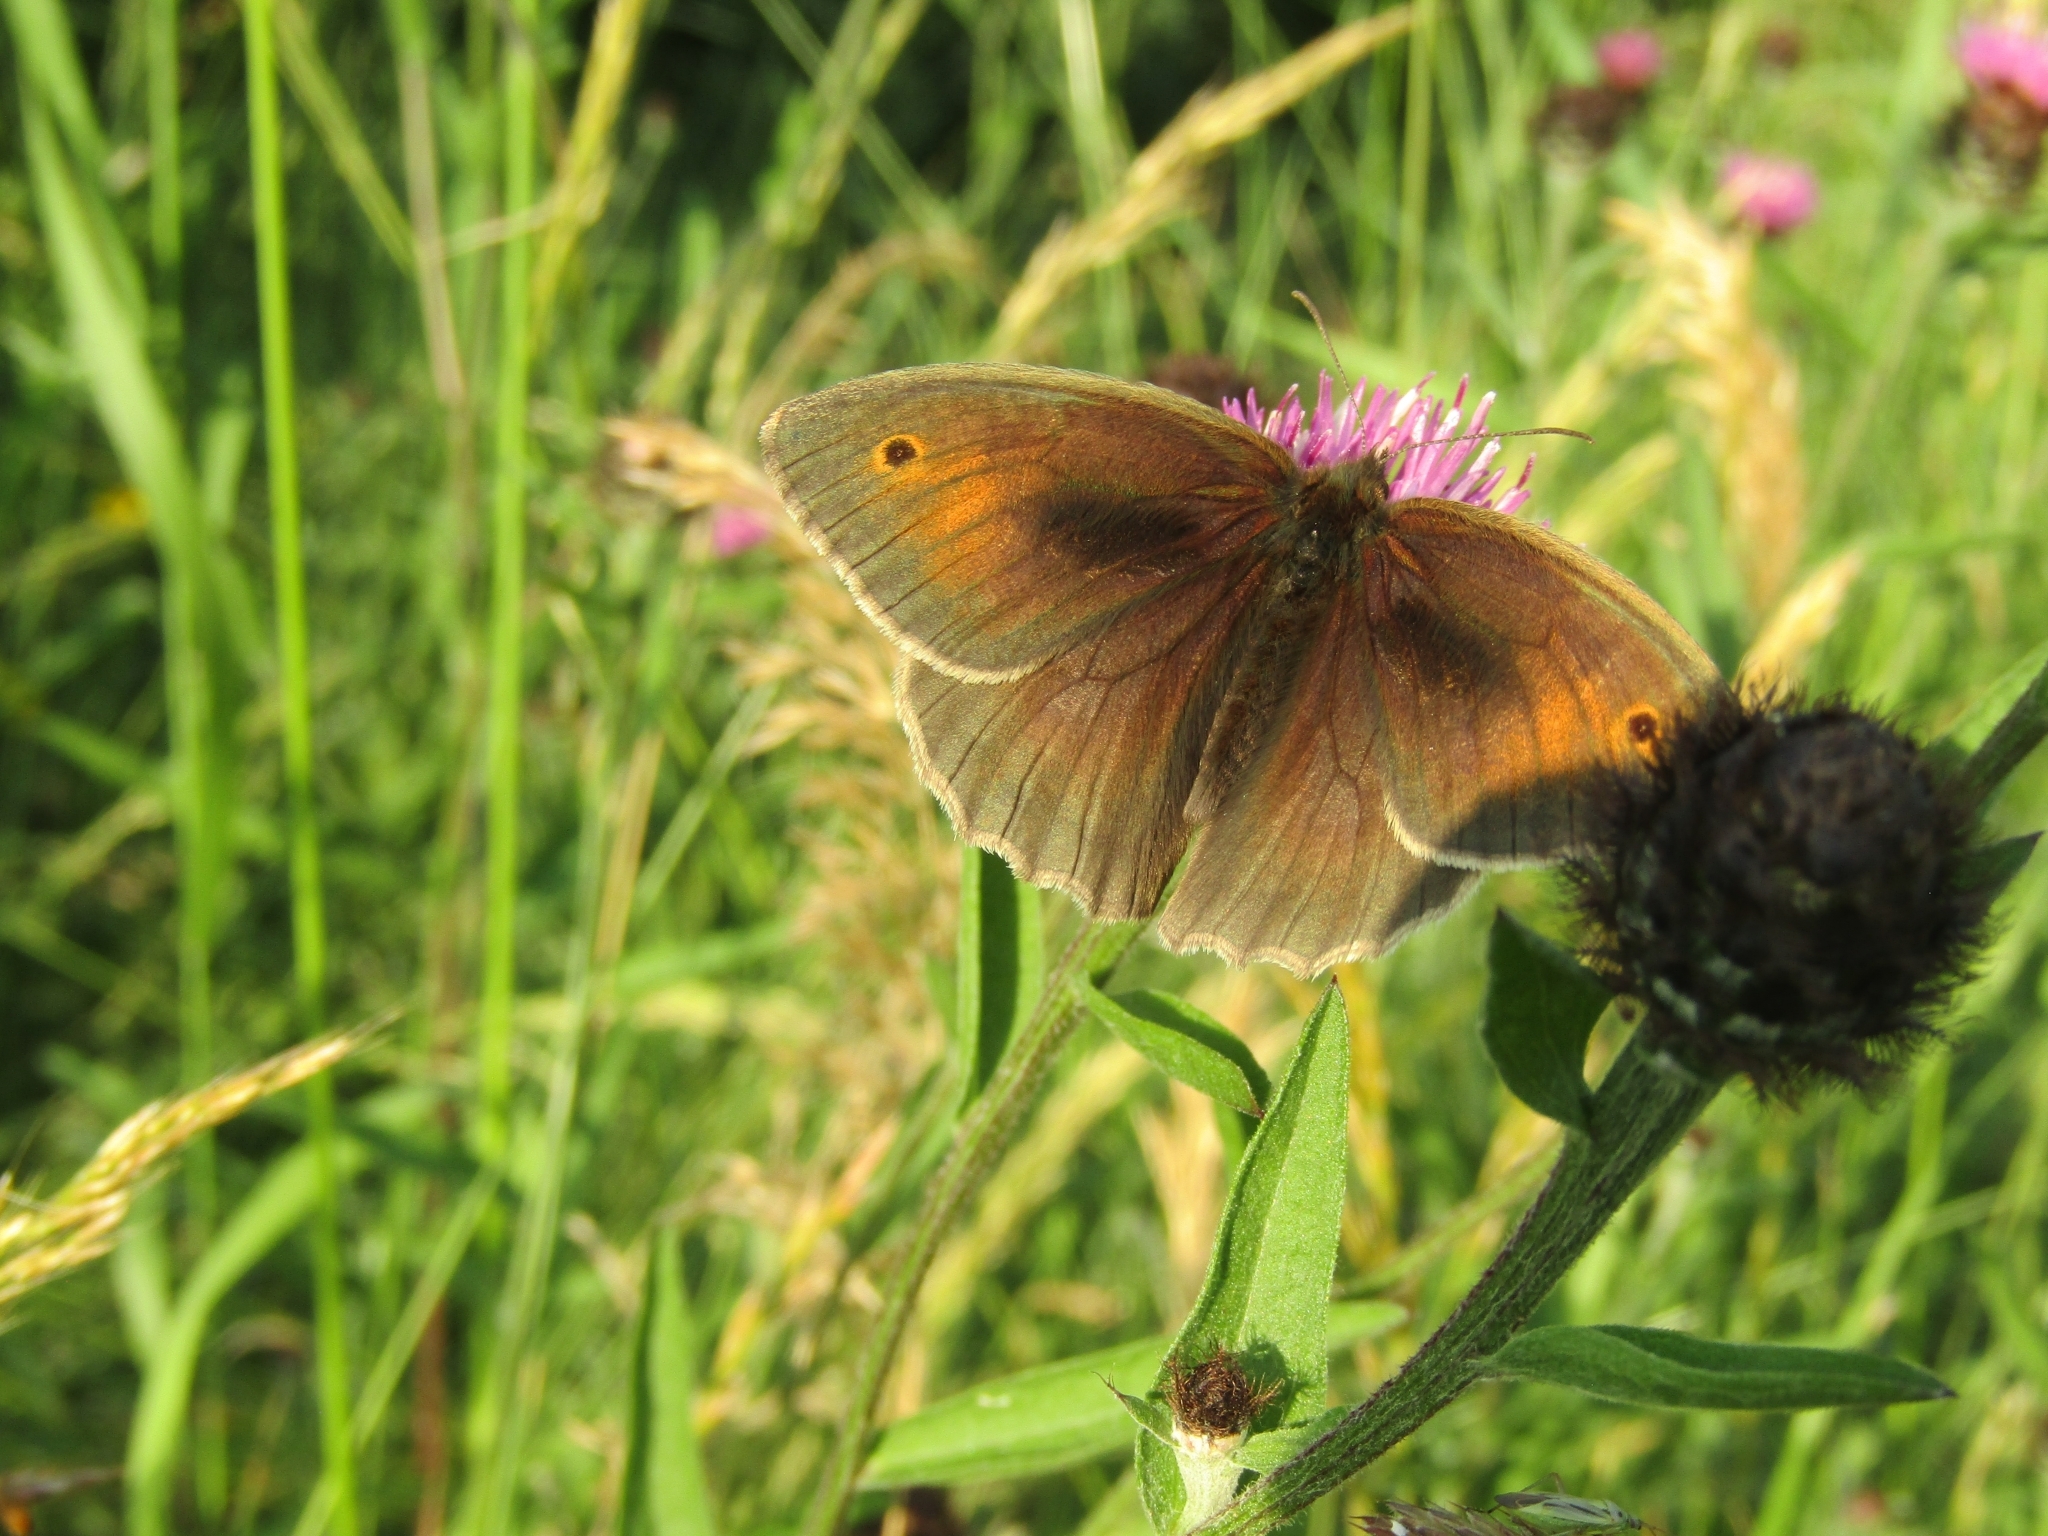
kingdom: Animalia
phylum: Arthropoda
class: Insecta
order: Lepidoptera
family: Nymphalidae
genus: Maniola
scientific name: Maniola jurtina
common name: Meadow brown
